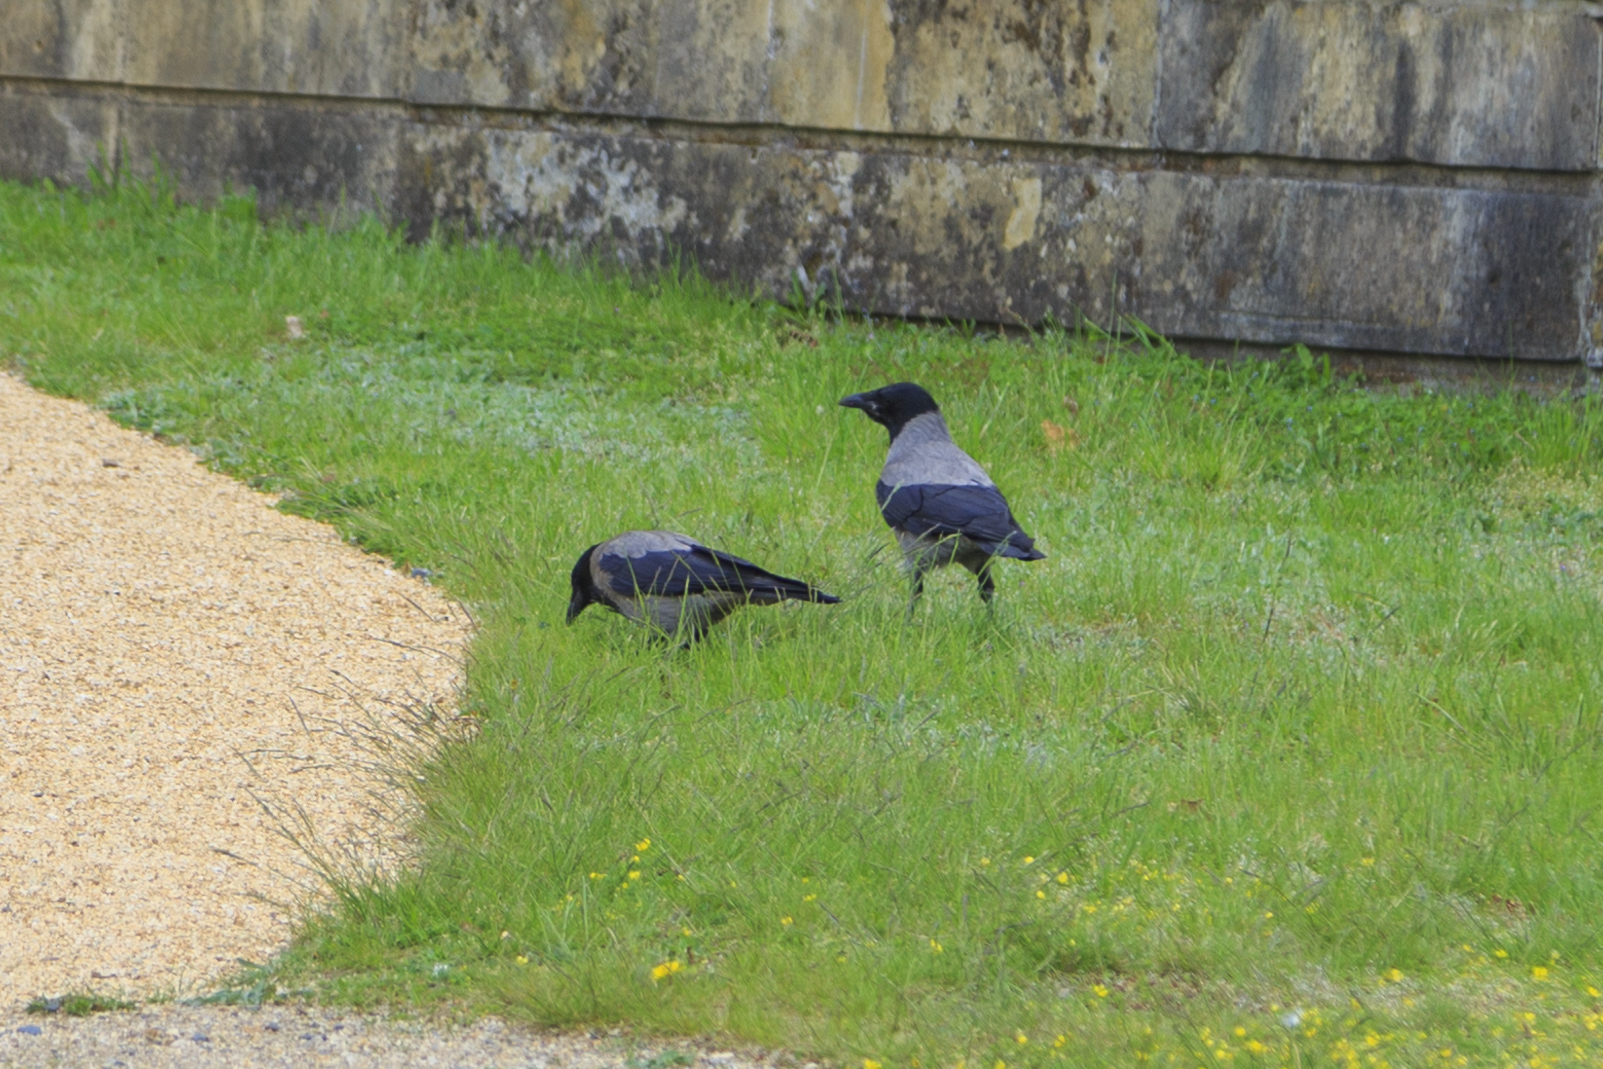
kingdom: Animalia
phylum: Chordata
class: Aves
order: Passeriformes
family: Corvidae
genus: Corvus
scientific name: Corvus cornix
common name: Hooded crow
